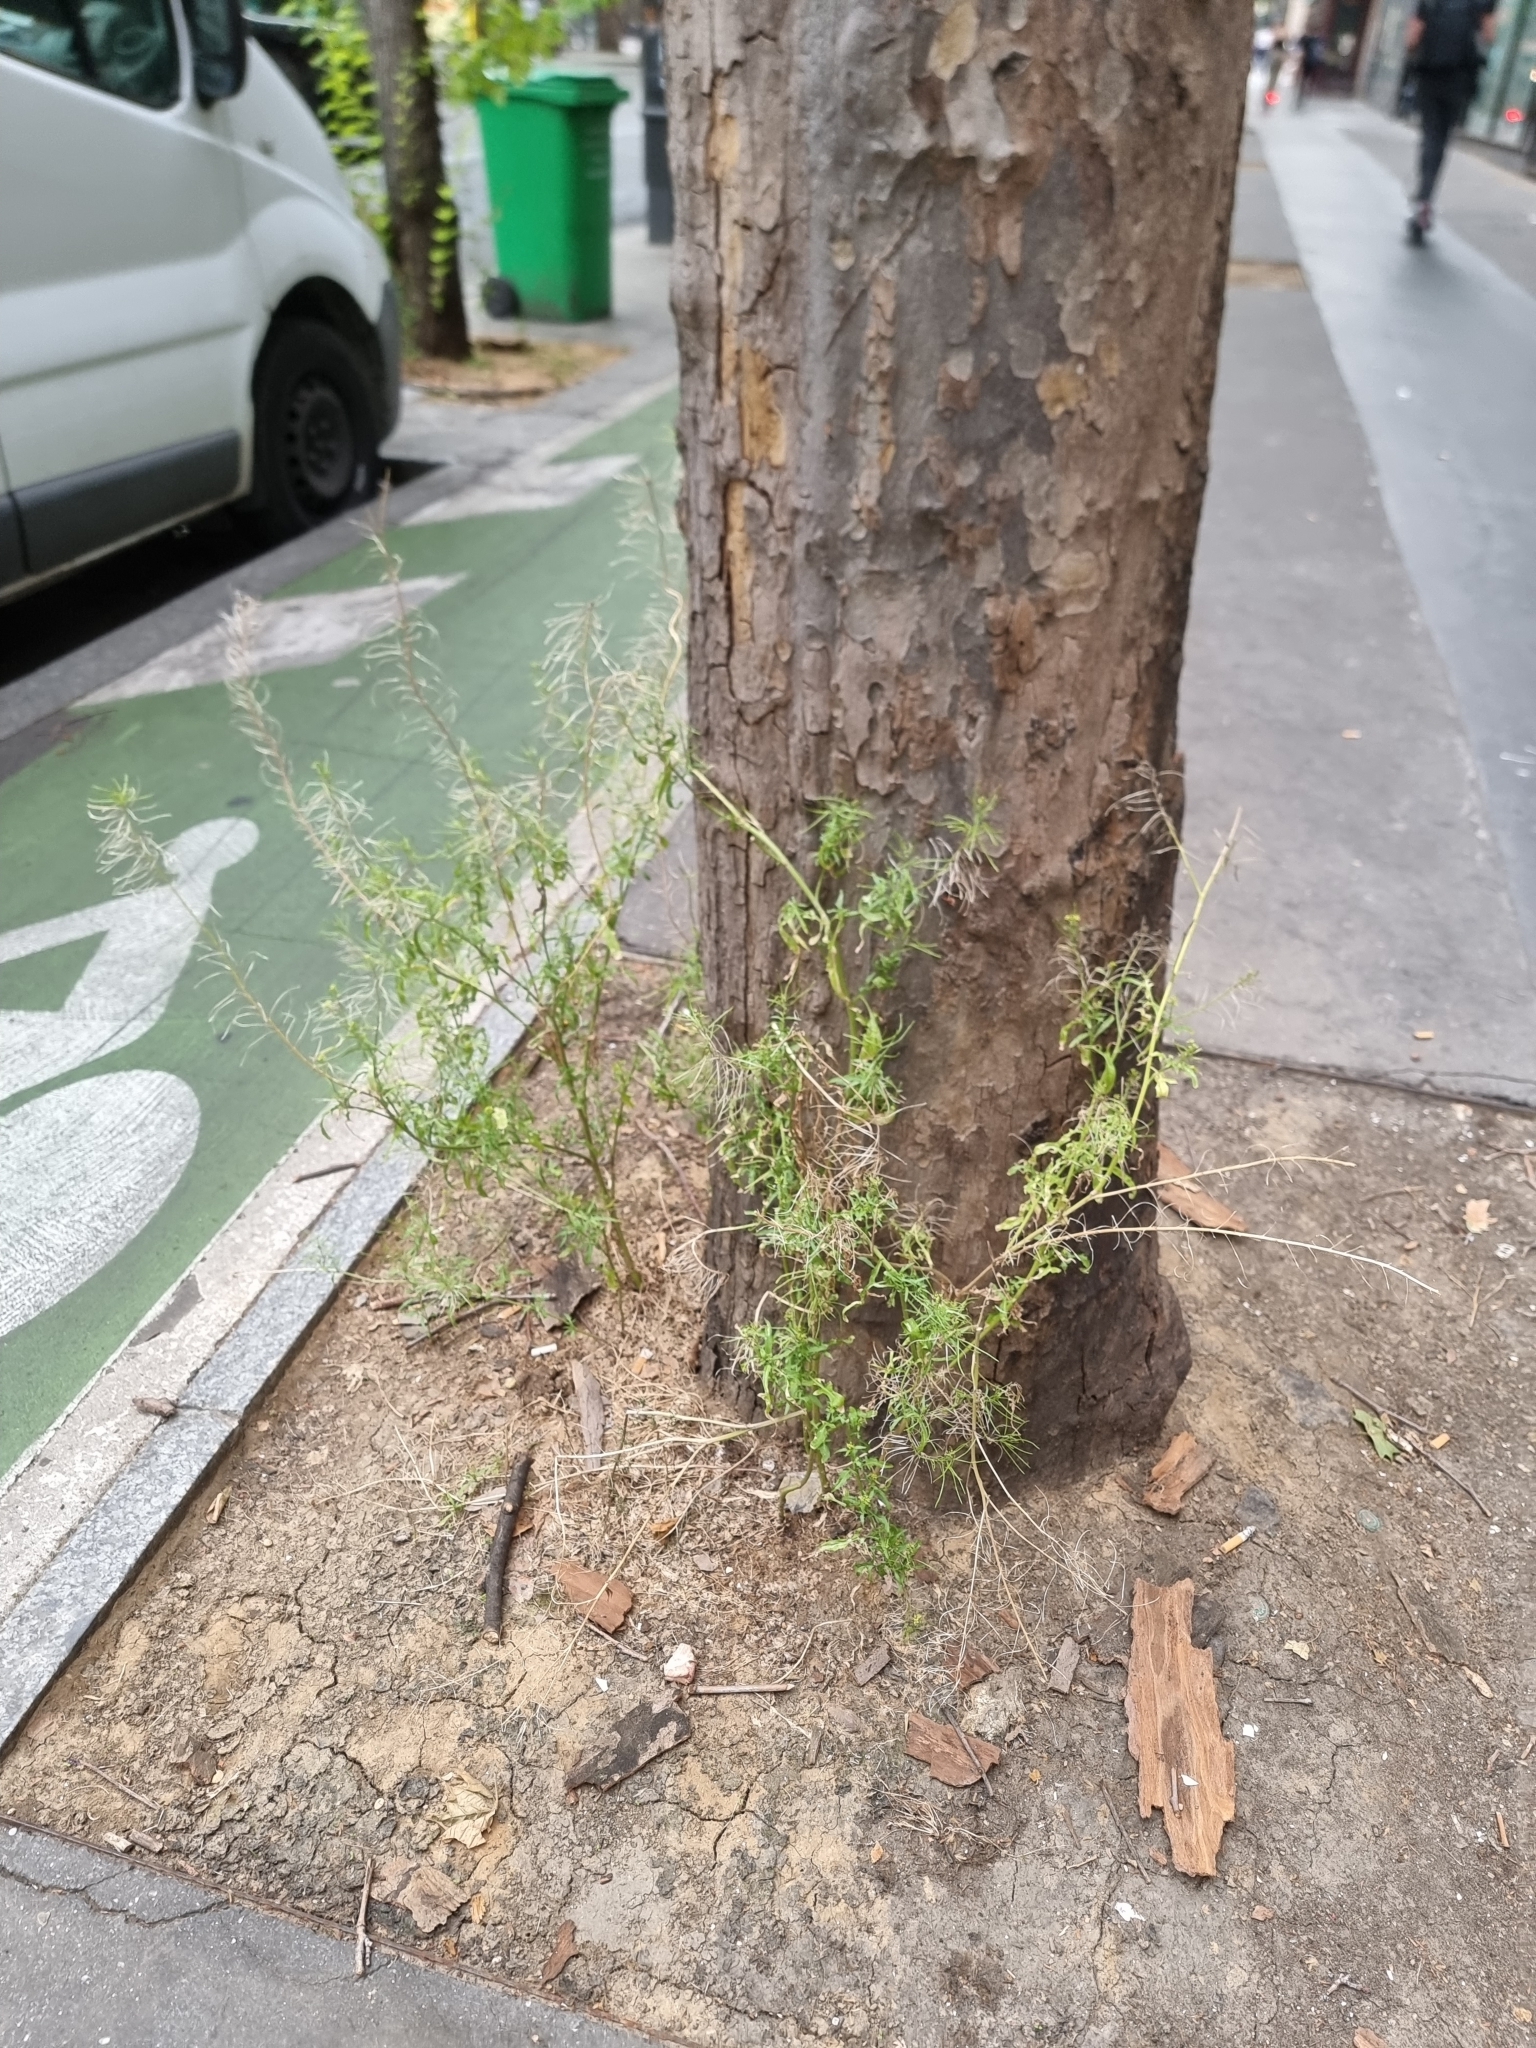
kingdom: Plantae
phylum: Tracheophyta
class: Magnoliopsida
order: Brassicales
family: Brassicaceae
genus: Sisymbrium
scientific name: Sisymbrium irio
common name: London rocket
